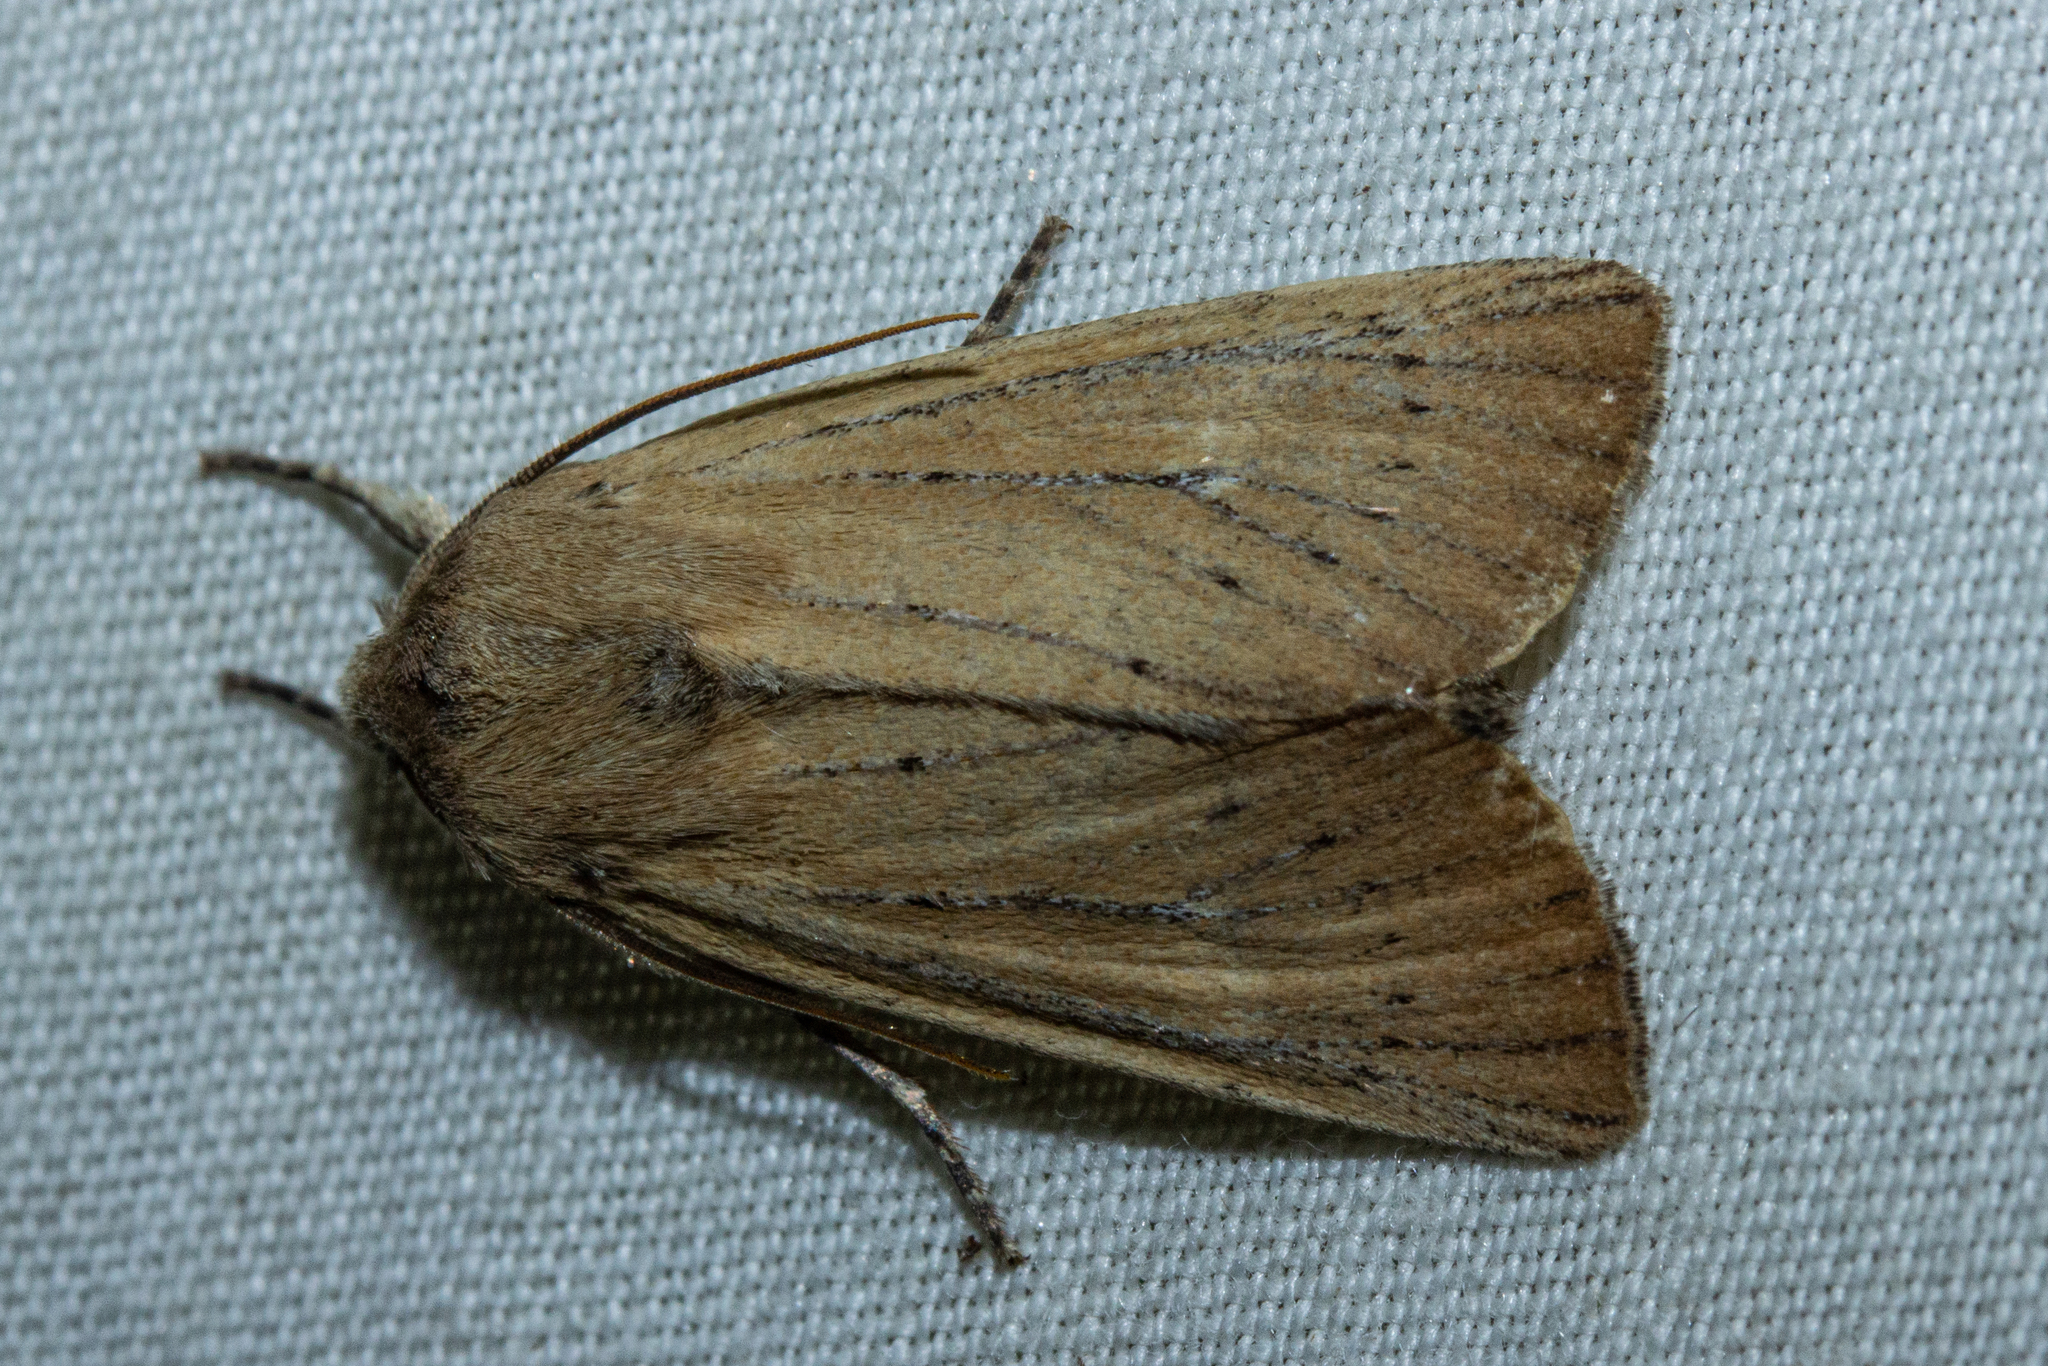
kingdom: Animalia
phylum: Arthropoda
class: Insecta
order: Lepidoptera
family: Noctuidae
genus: Ichneutica
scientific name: Ichneutica blenheimensis
